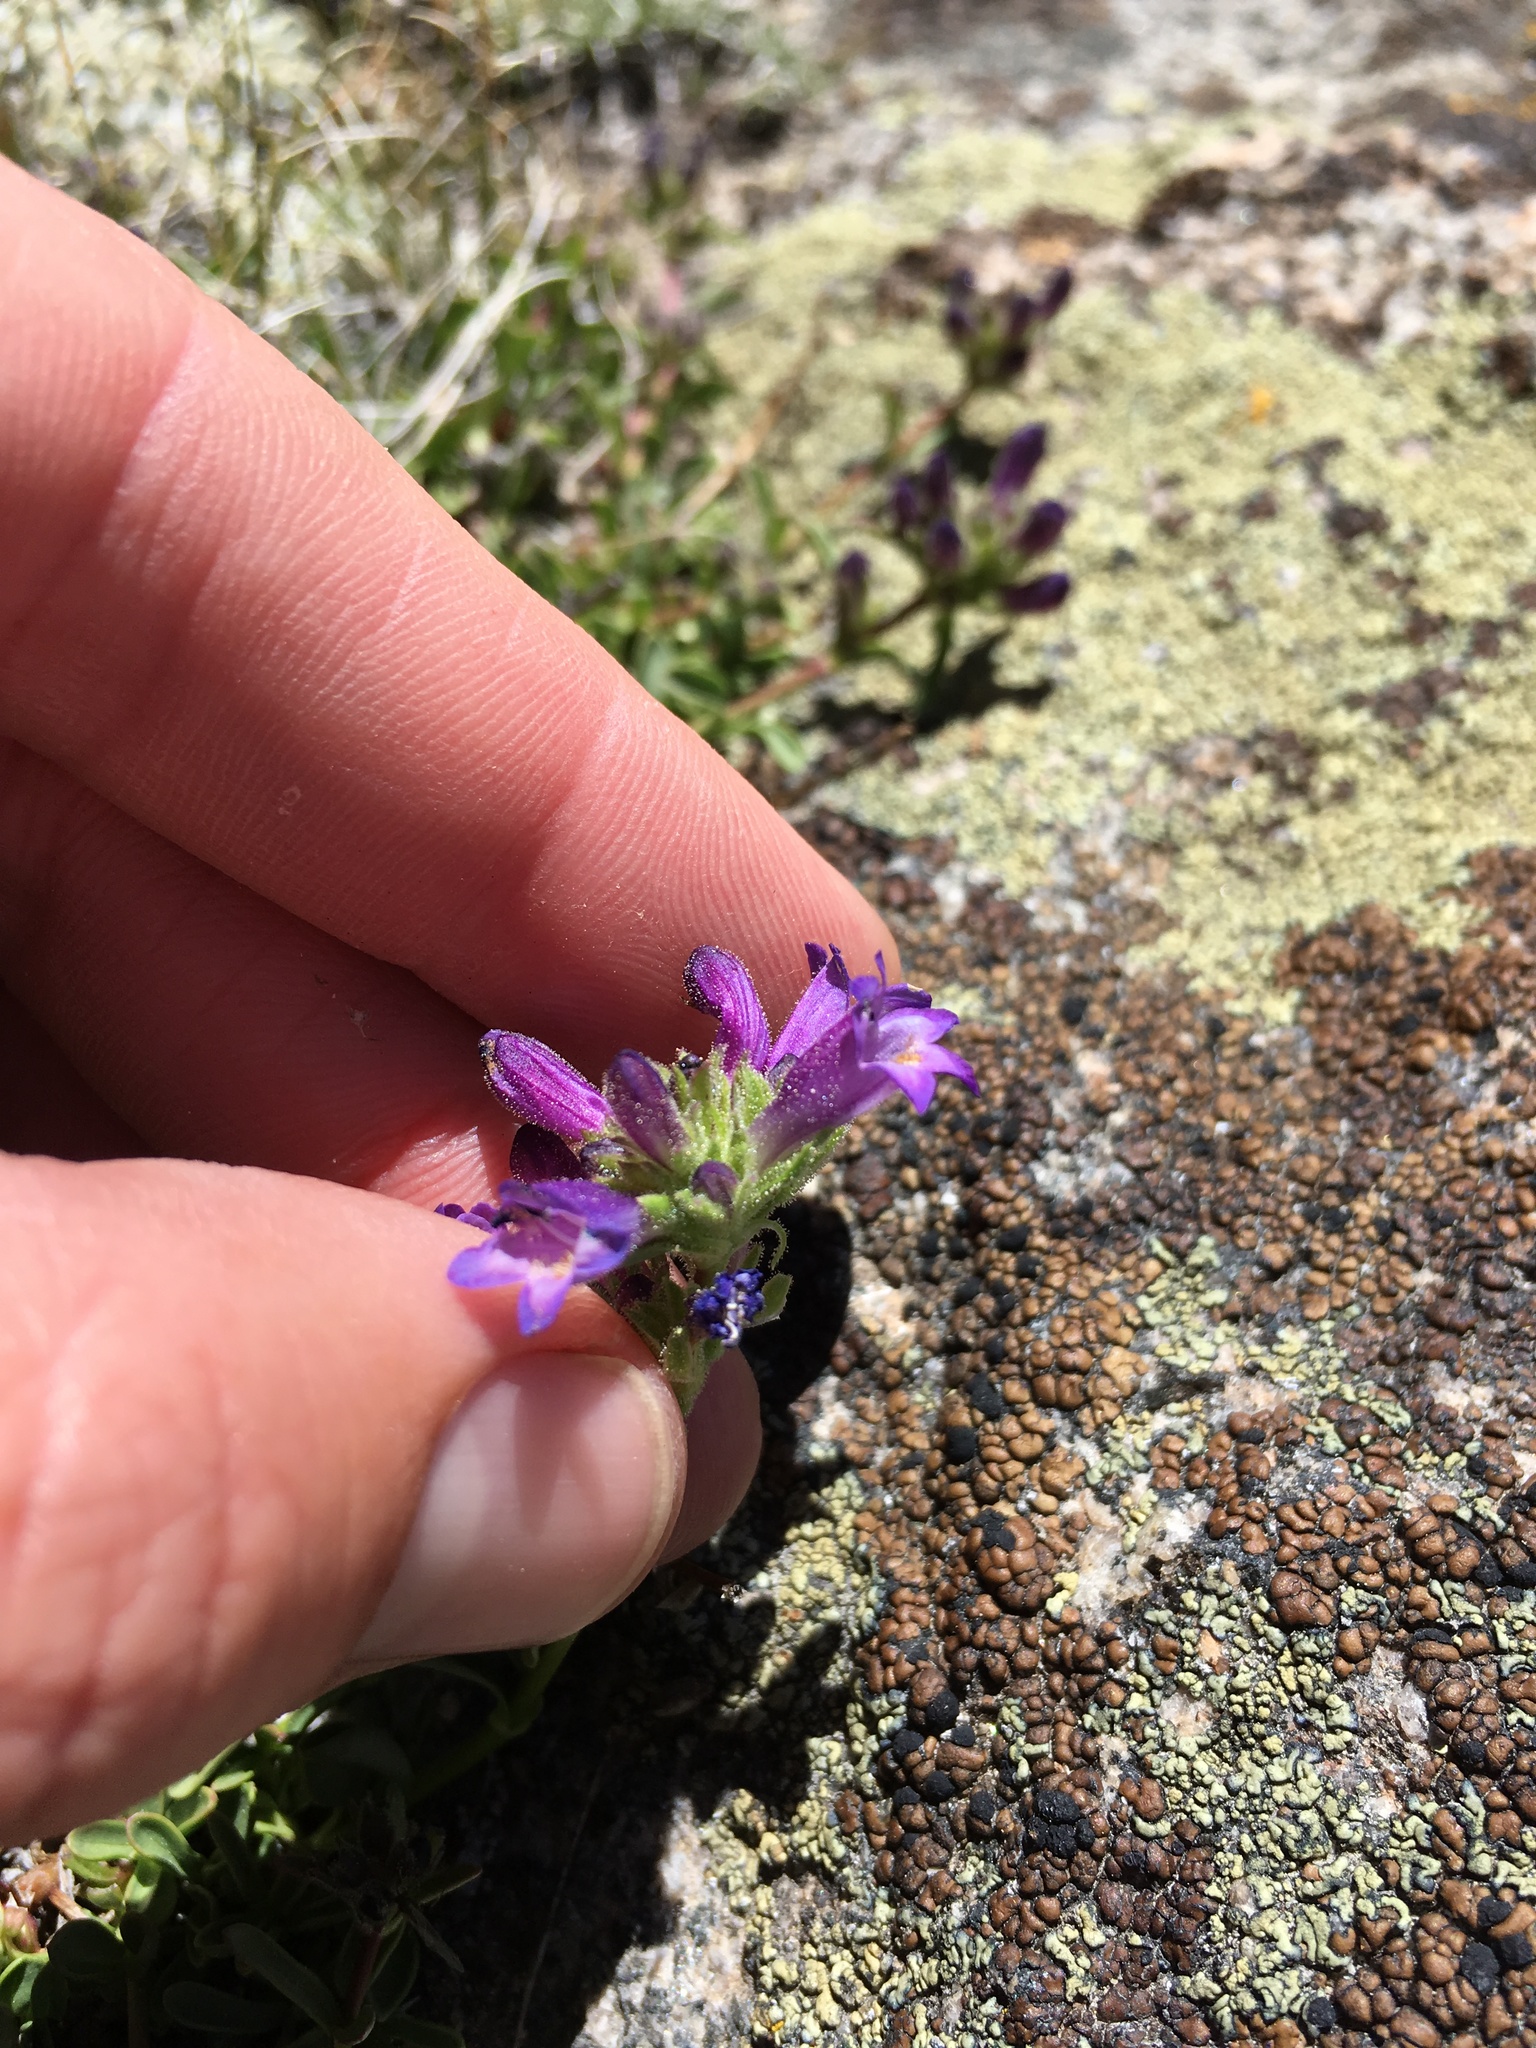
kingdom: Plantae
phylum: Tracheophyta
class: Magnoliopsida
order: Lamiales
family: Plantaginaceae
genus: Penstemon
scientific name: Penstemon heterodoxus
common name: Sierran penstemon
